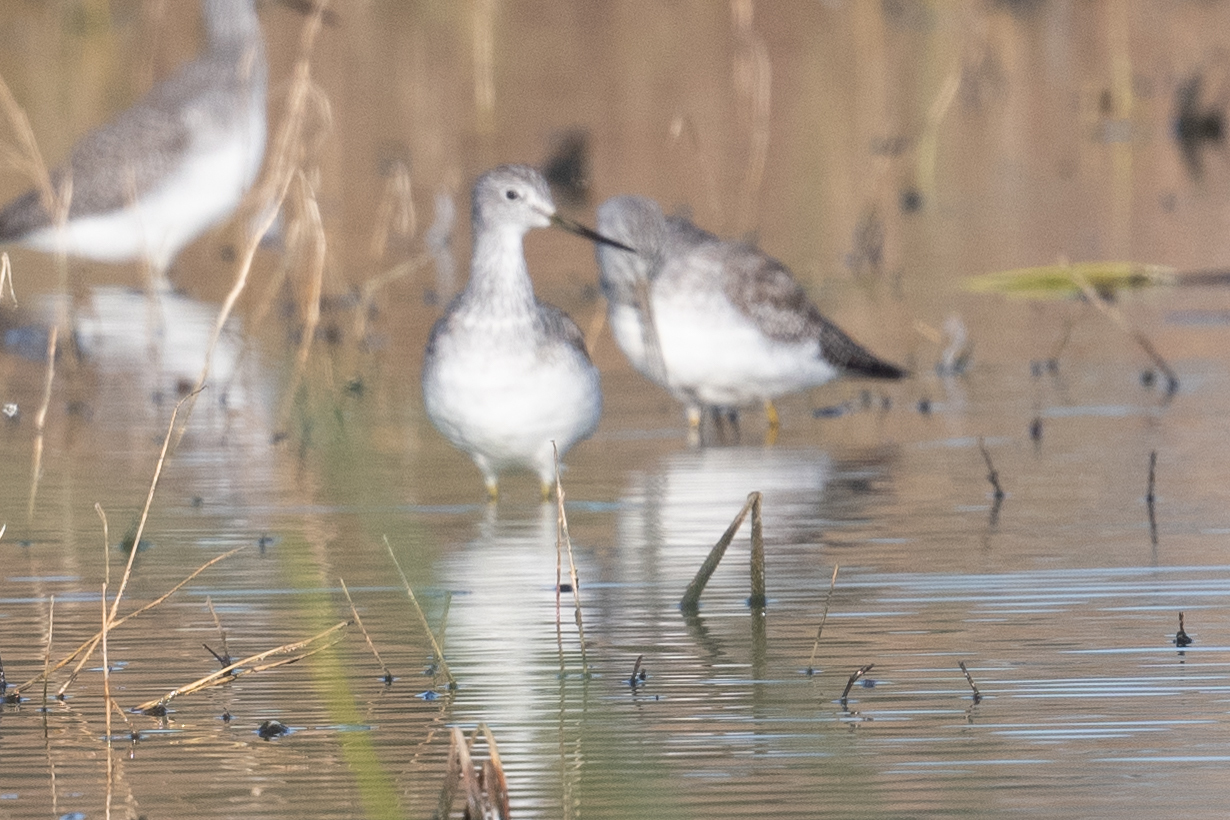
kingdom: Animalia
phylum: Chordata
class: Aves
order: Charadriiformes
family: Scolopacidae
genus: Tringa
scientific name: Tringa melanoleuca
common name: Greater yellowlegs
